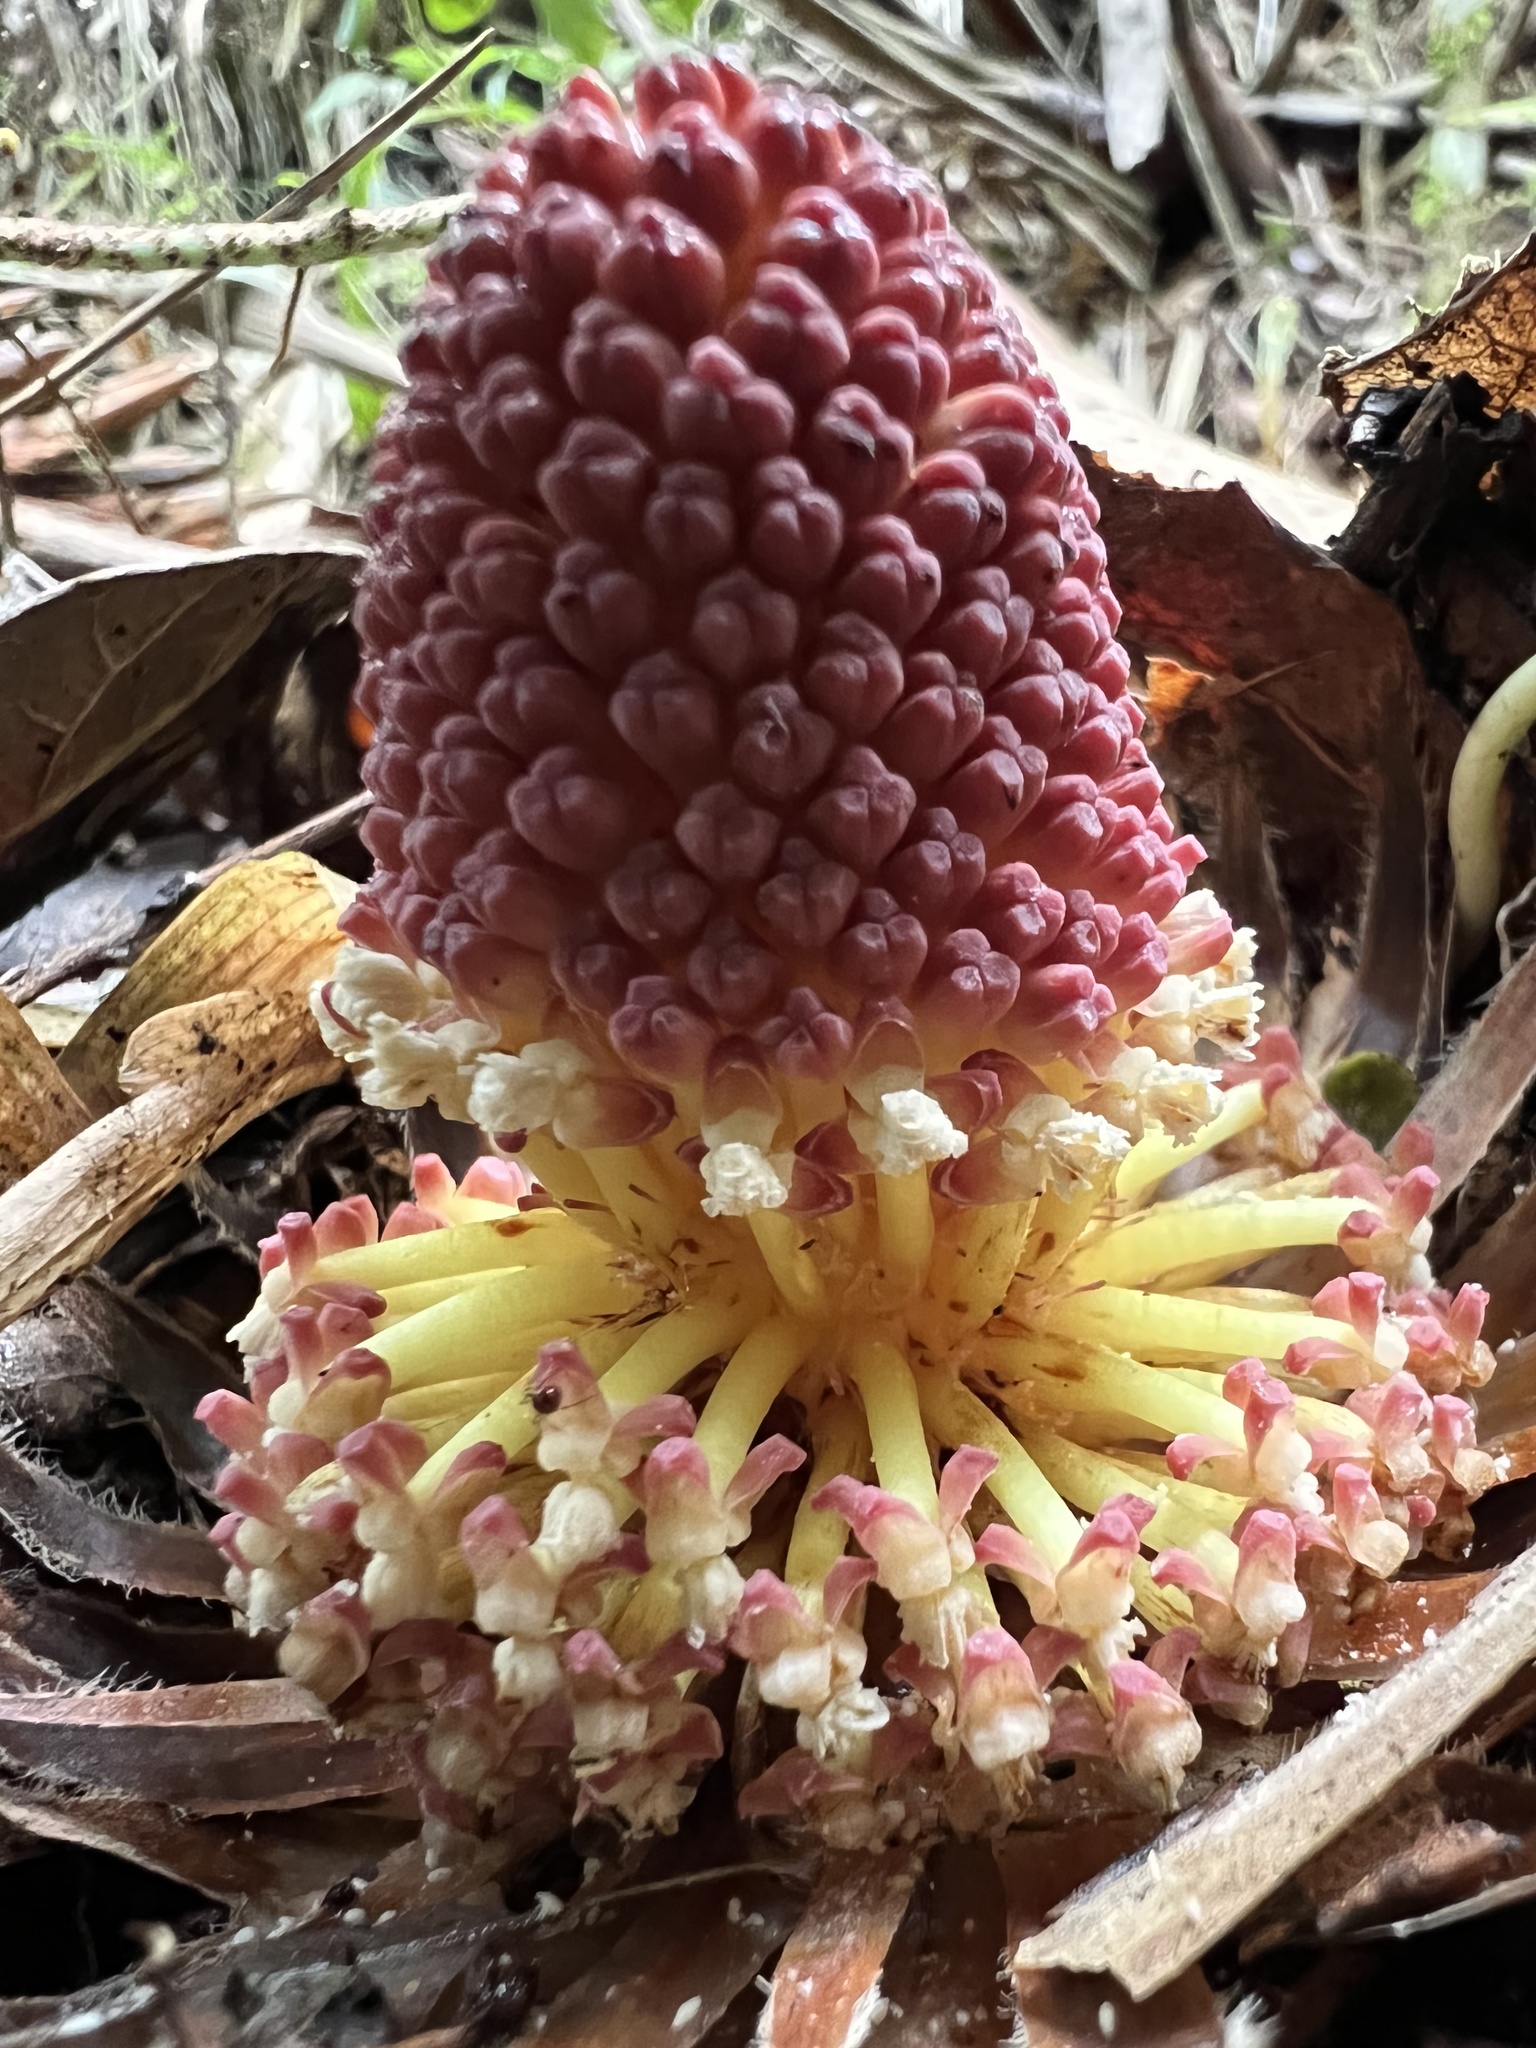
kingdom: Plantae
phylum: Tracheophyta
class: Magnoliopsida
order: Santalales
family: Balanophoraceae
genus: Langsdorffia
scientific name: Langsdorffia hypogaea
